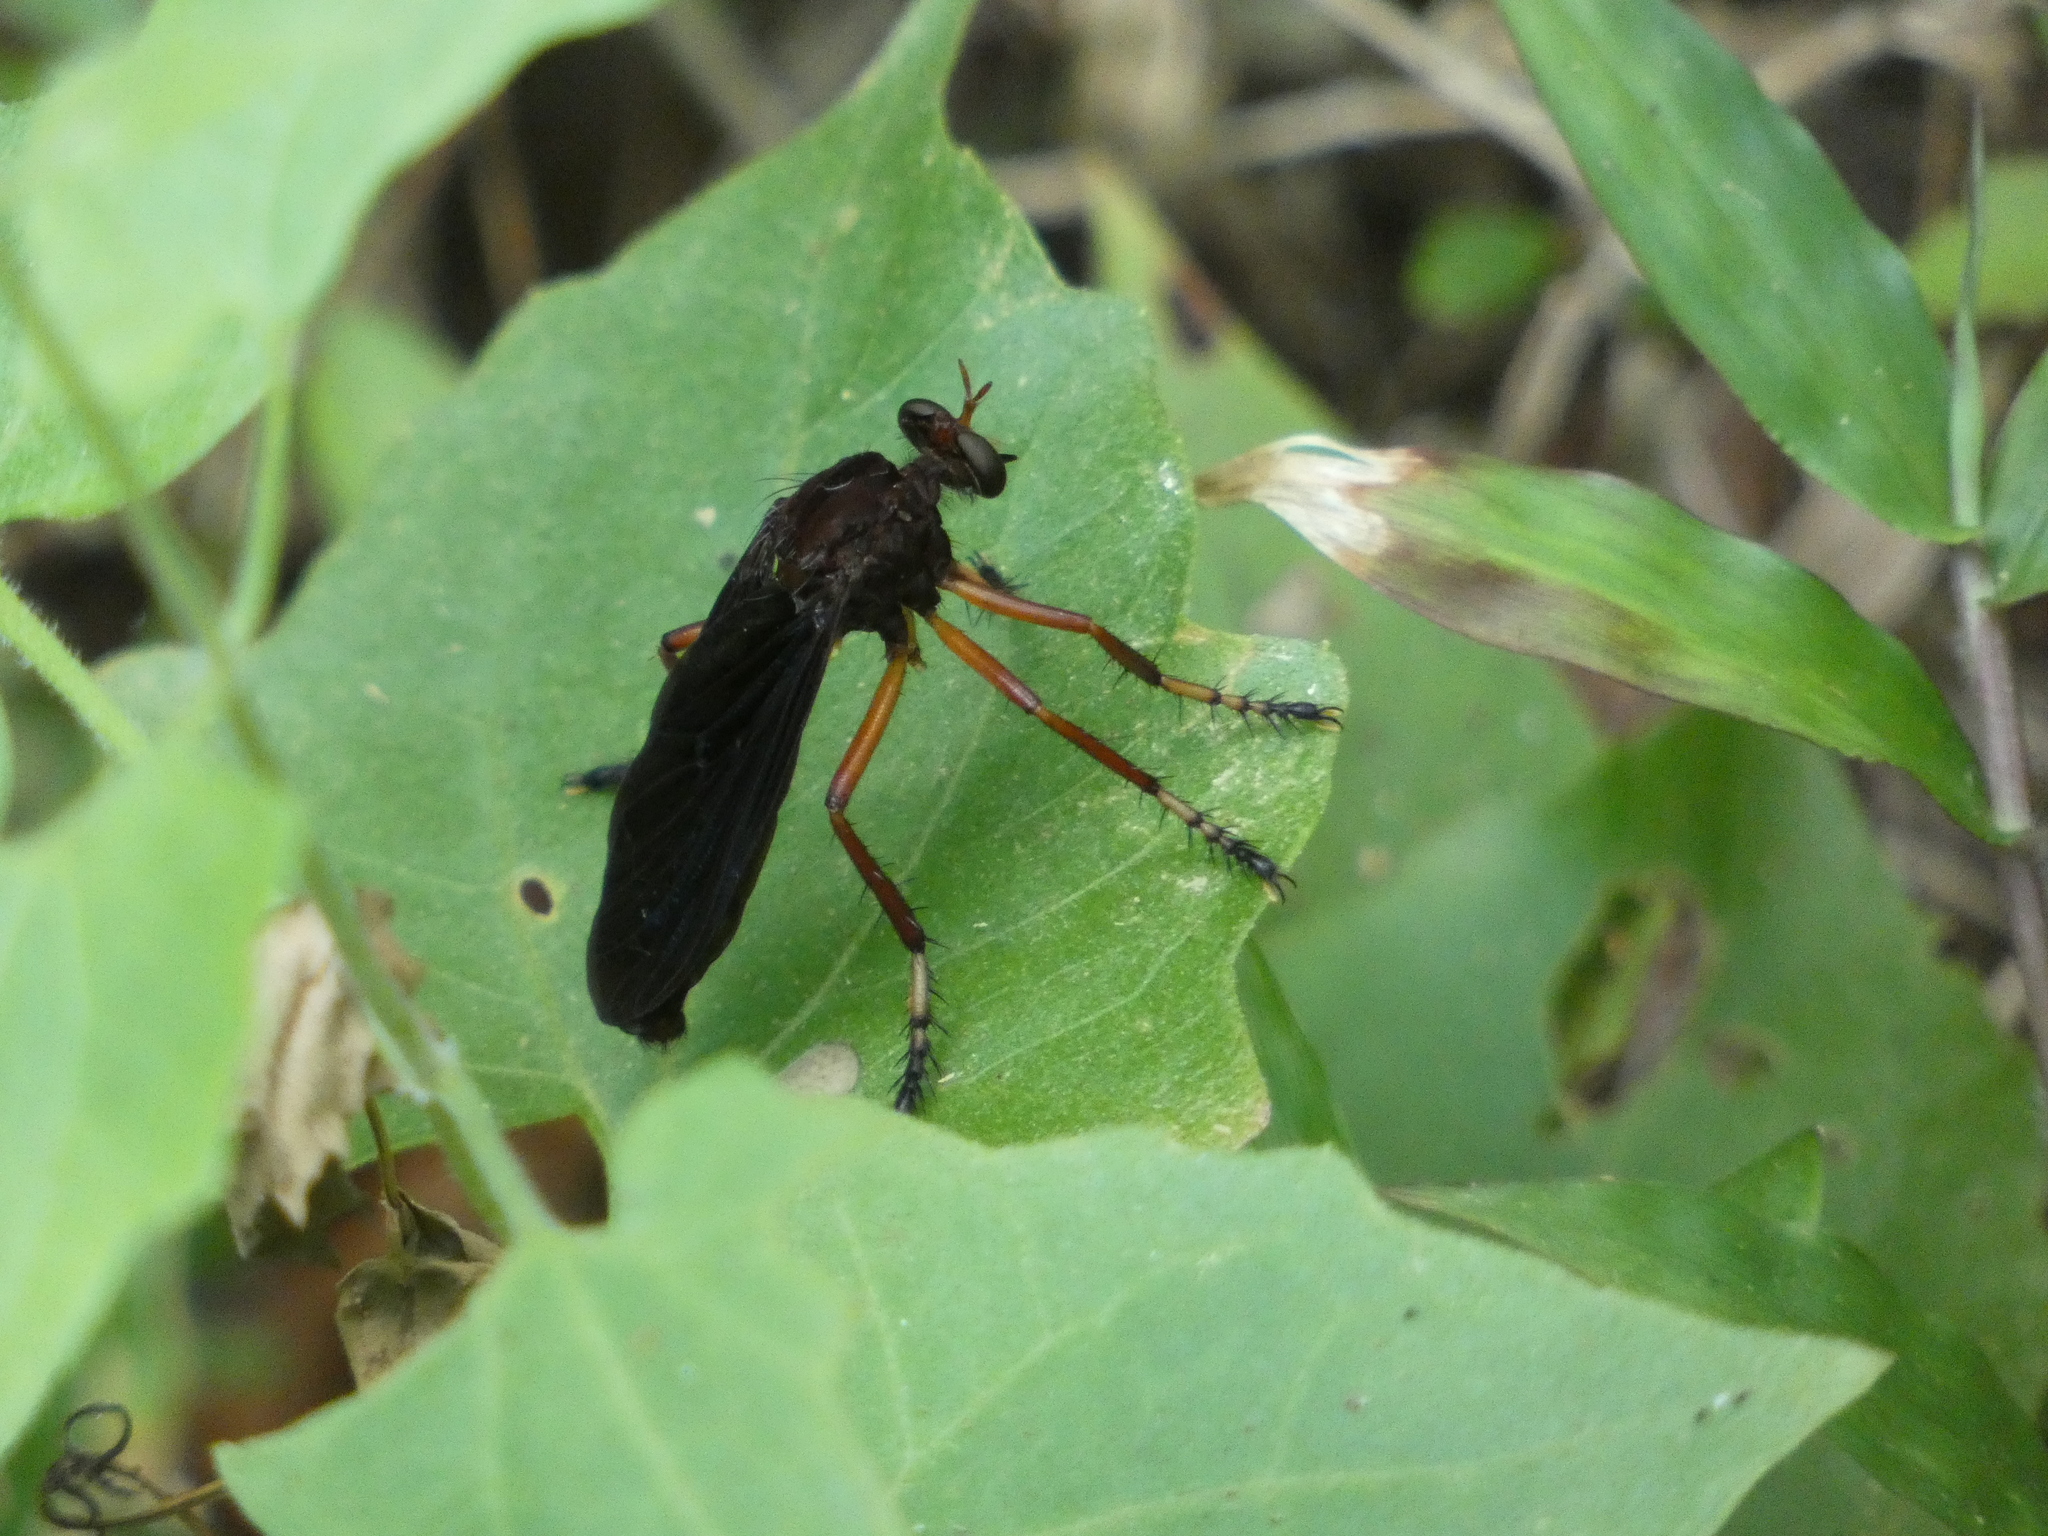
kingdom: Animalia
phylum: Arthropoda
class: Insecta
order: Diptera
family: Asilidae
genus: Diogmites
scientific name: Diogmites platypterus
